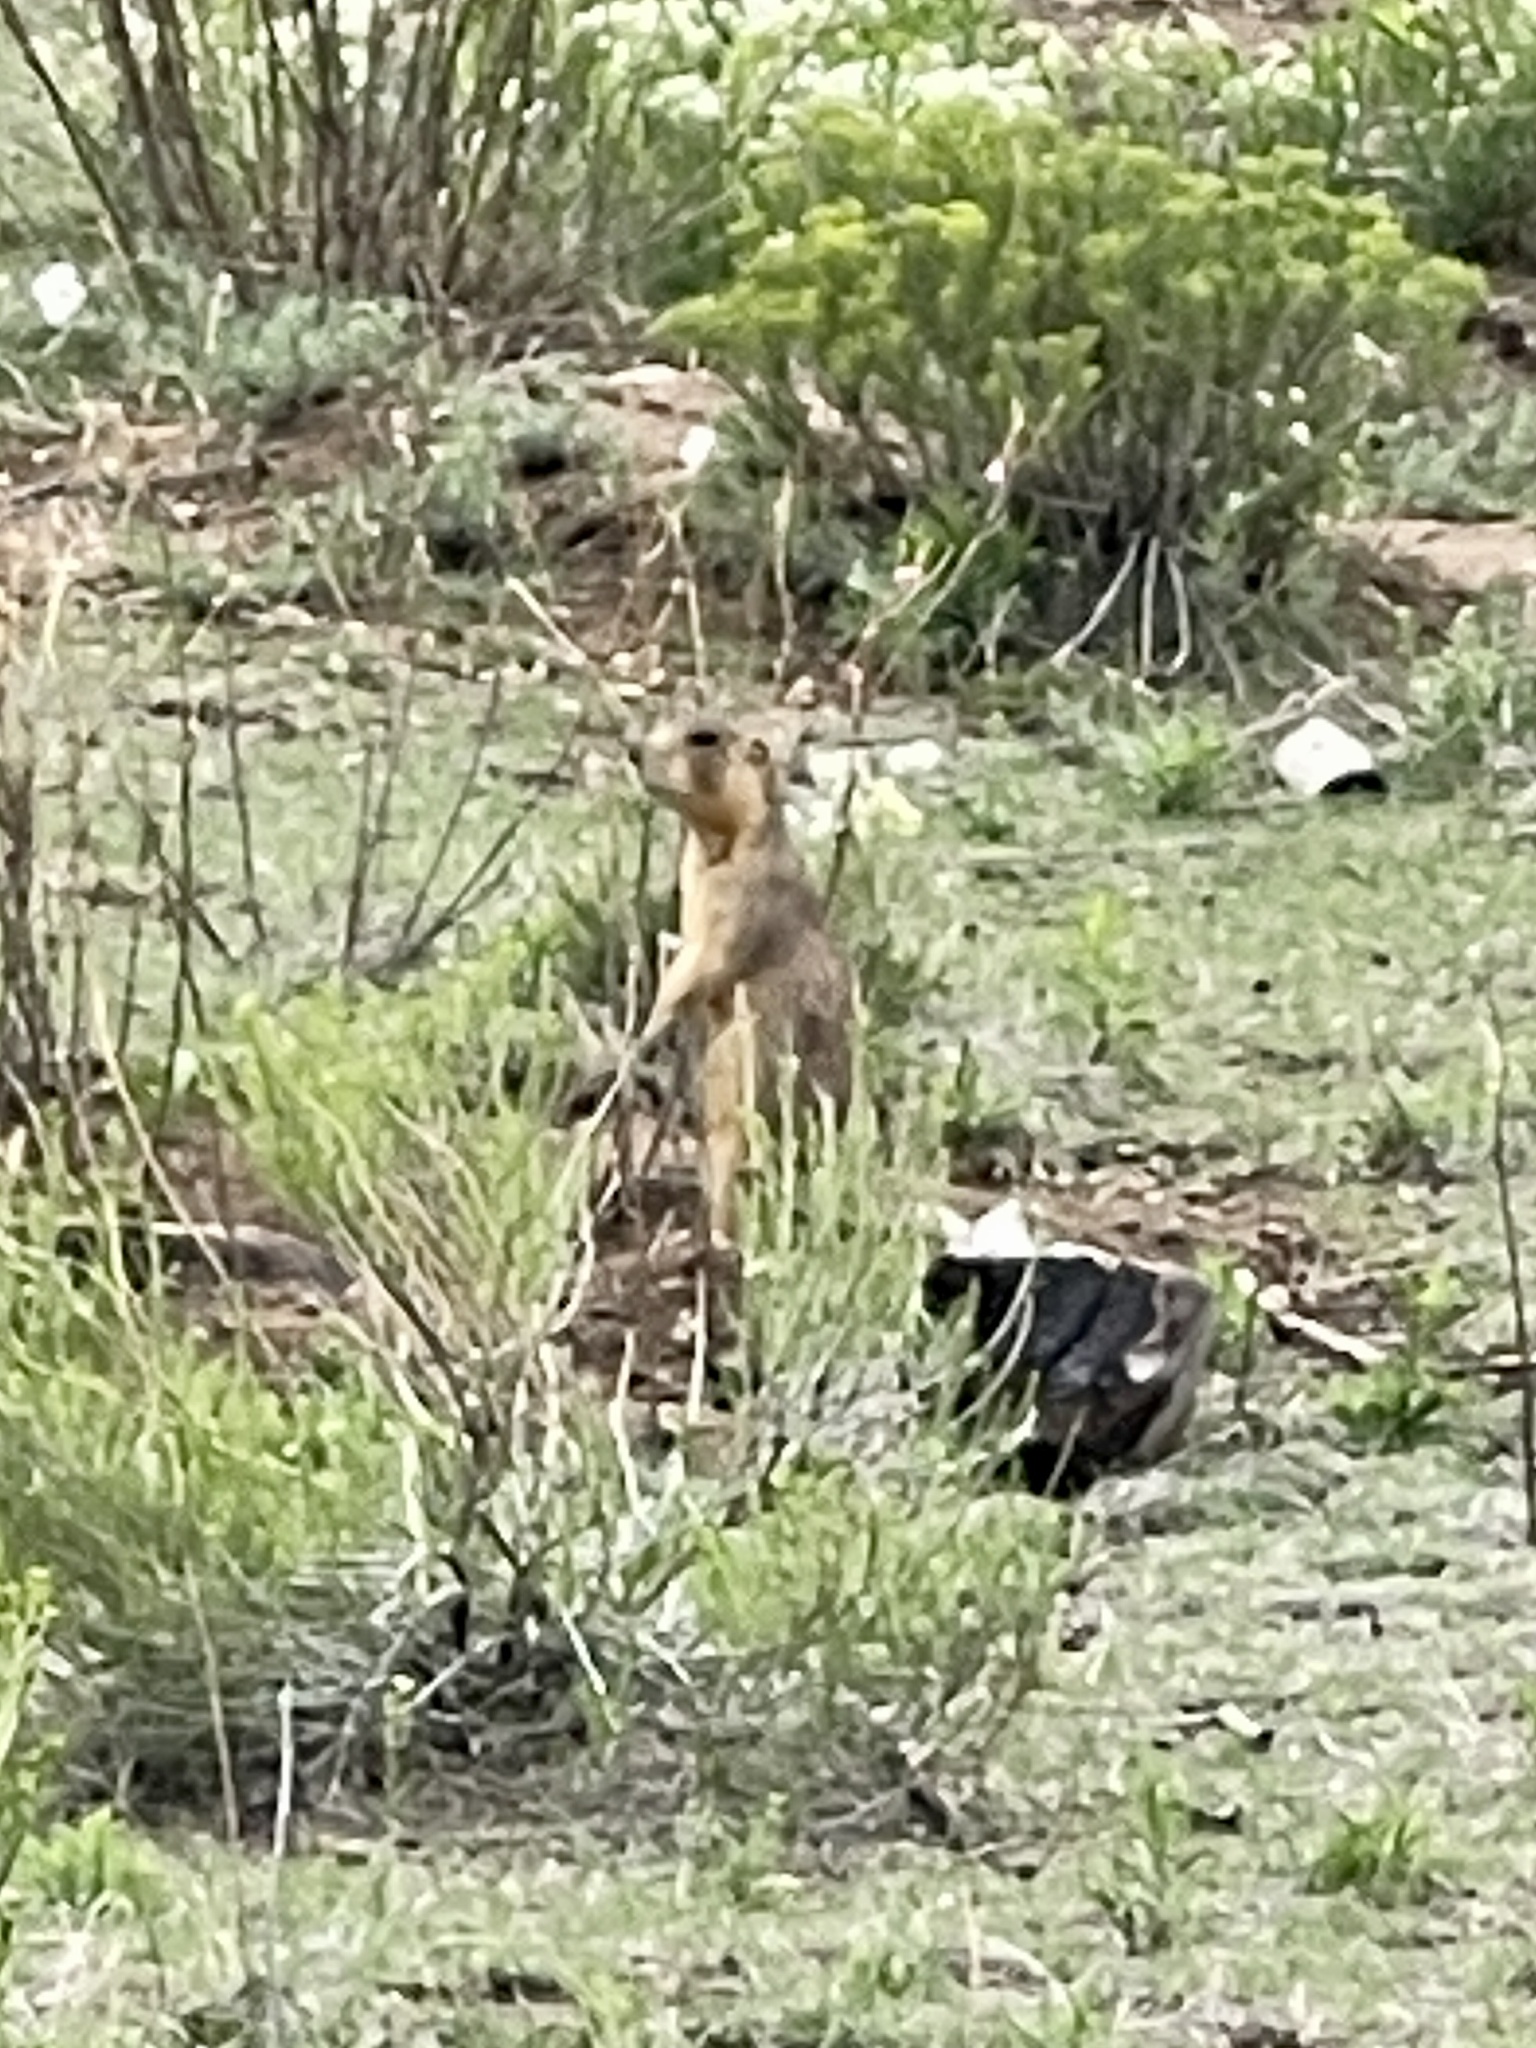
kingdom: Animalia
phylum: Chordata
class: Mammalia
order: Rodentia
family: Sciuridae
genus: Cynomys
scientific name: Cynomys gunnisoni
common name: Gunnison's prairie dog
